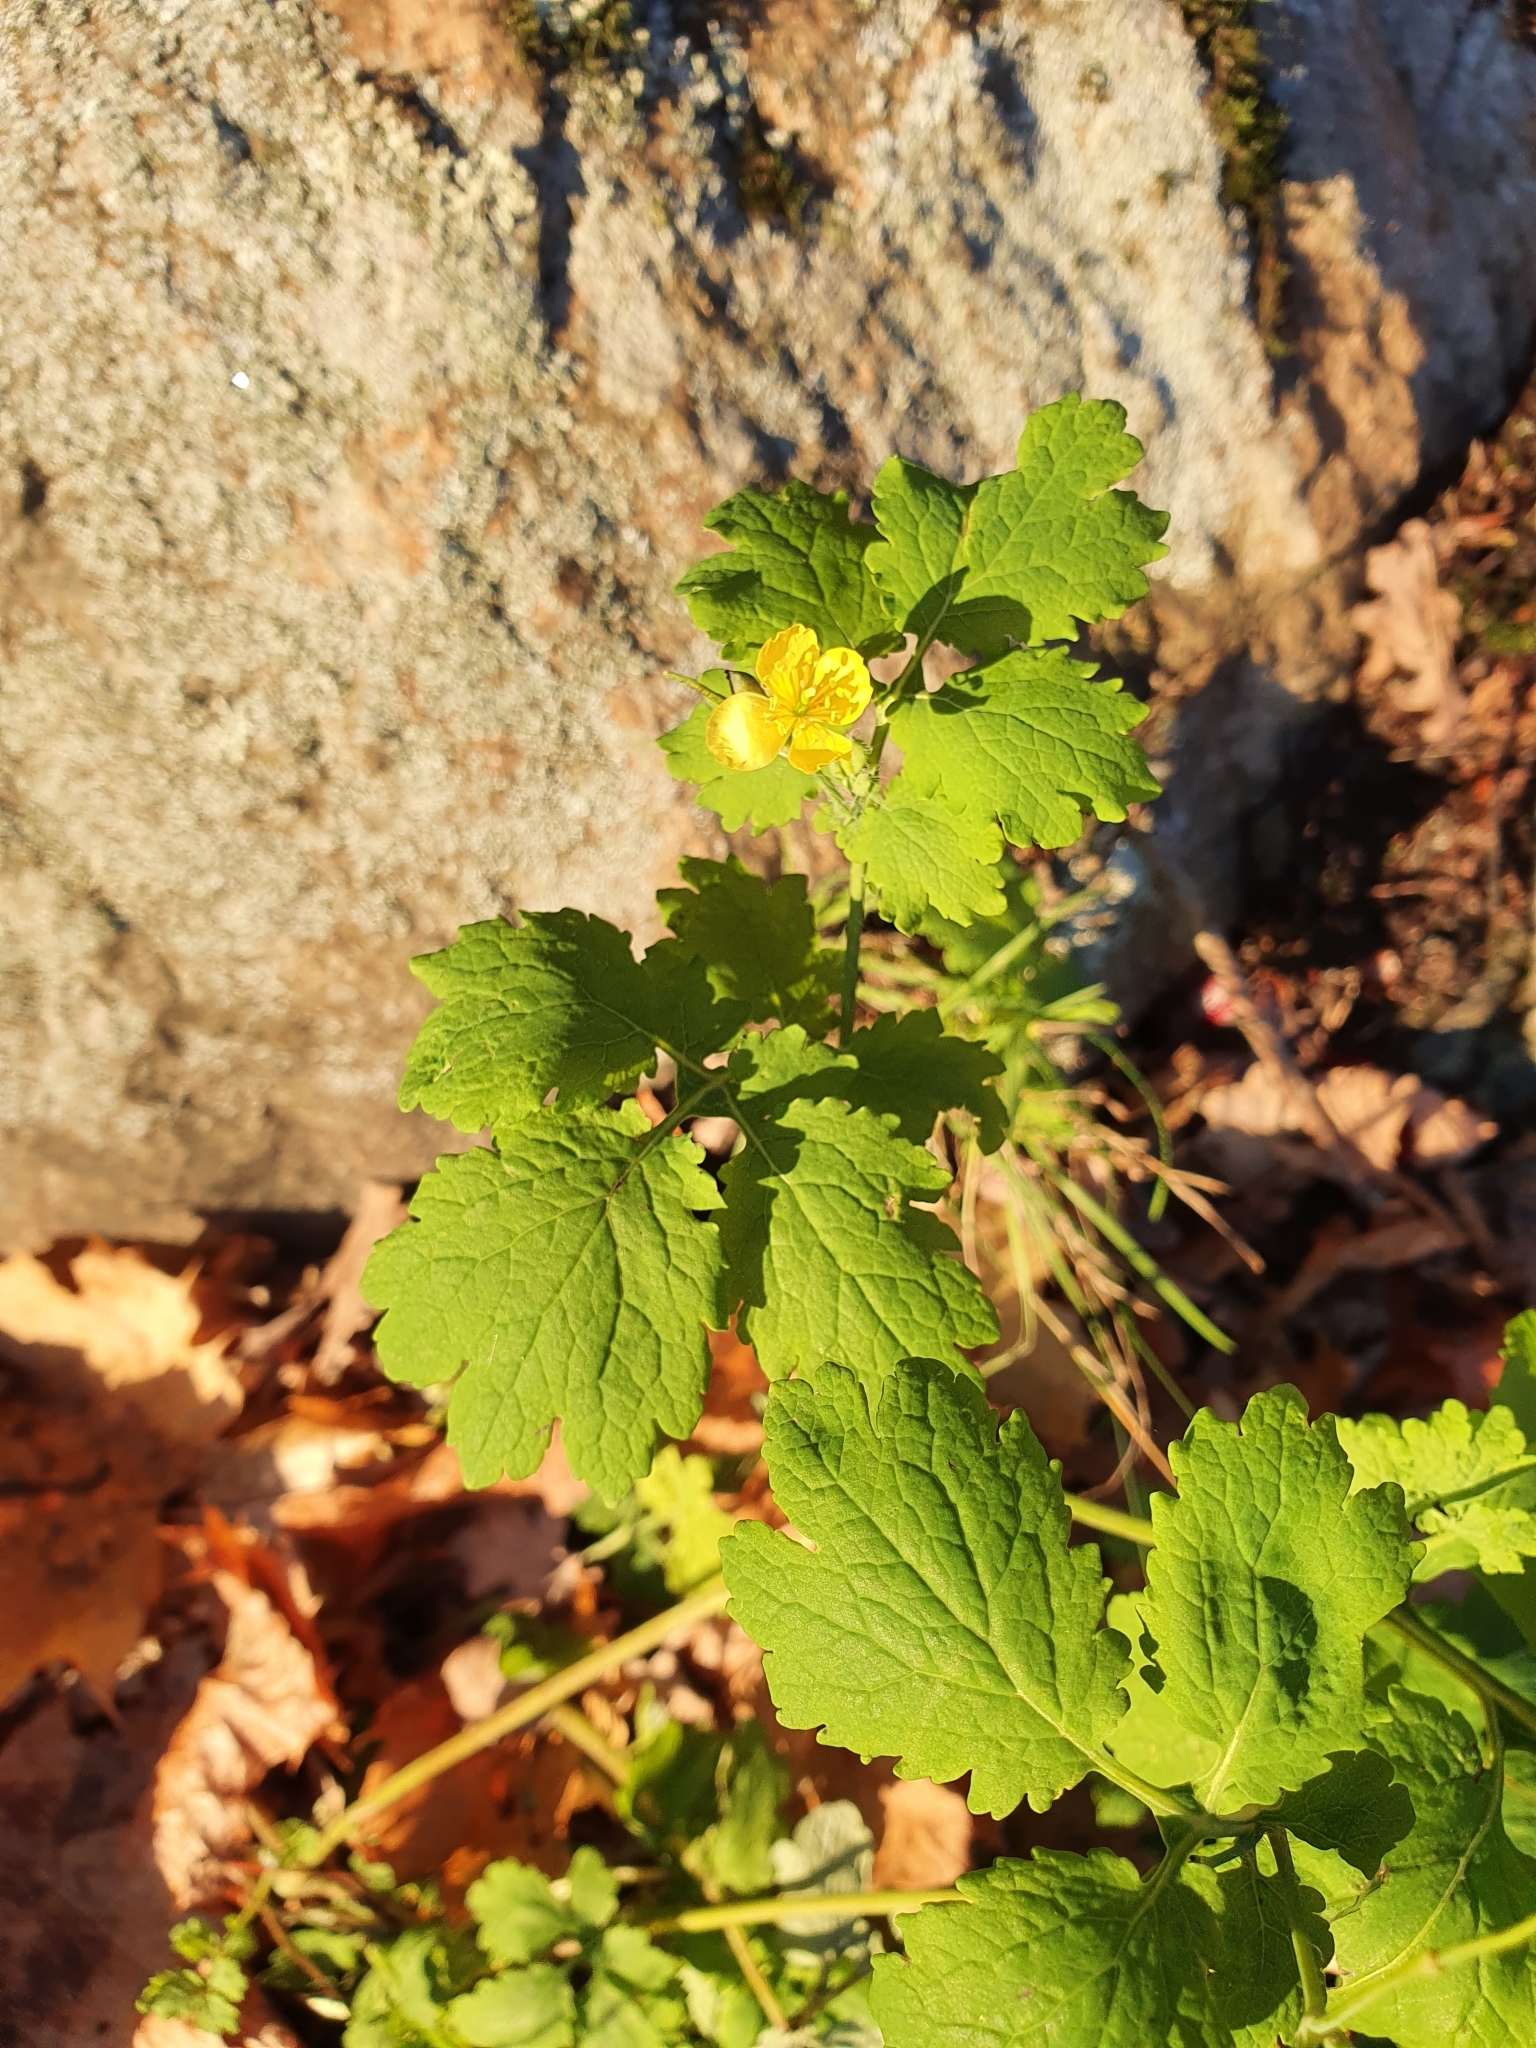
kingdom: Plantae
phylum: Tracheophyta
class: Magnoliopsida
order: Ranunculales
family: Papaveraceae
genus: Chelidonium
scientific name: Chelidonium majus
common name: Greater celandine
